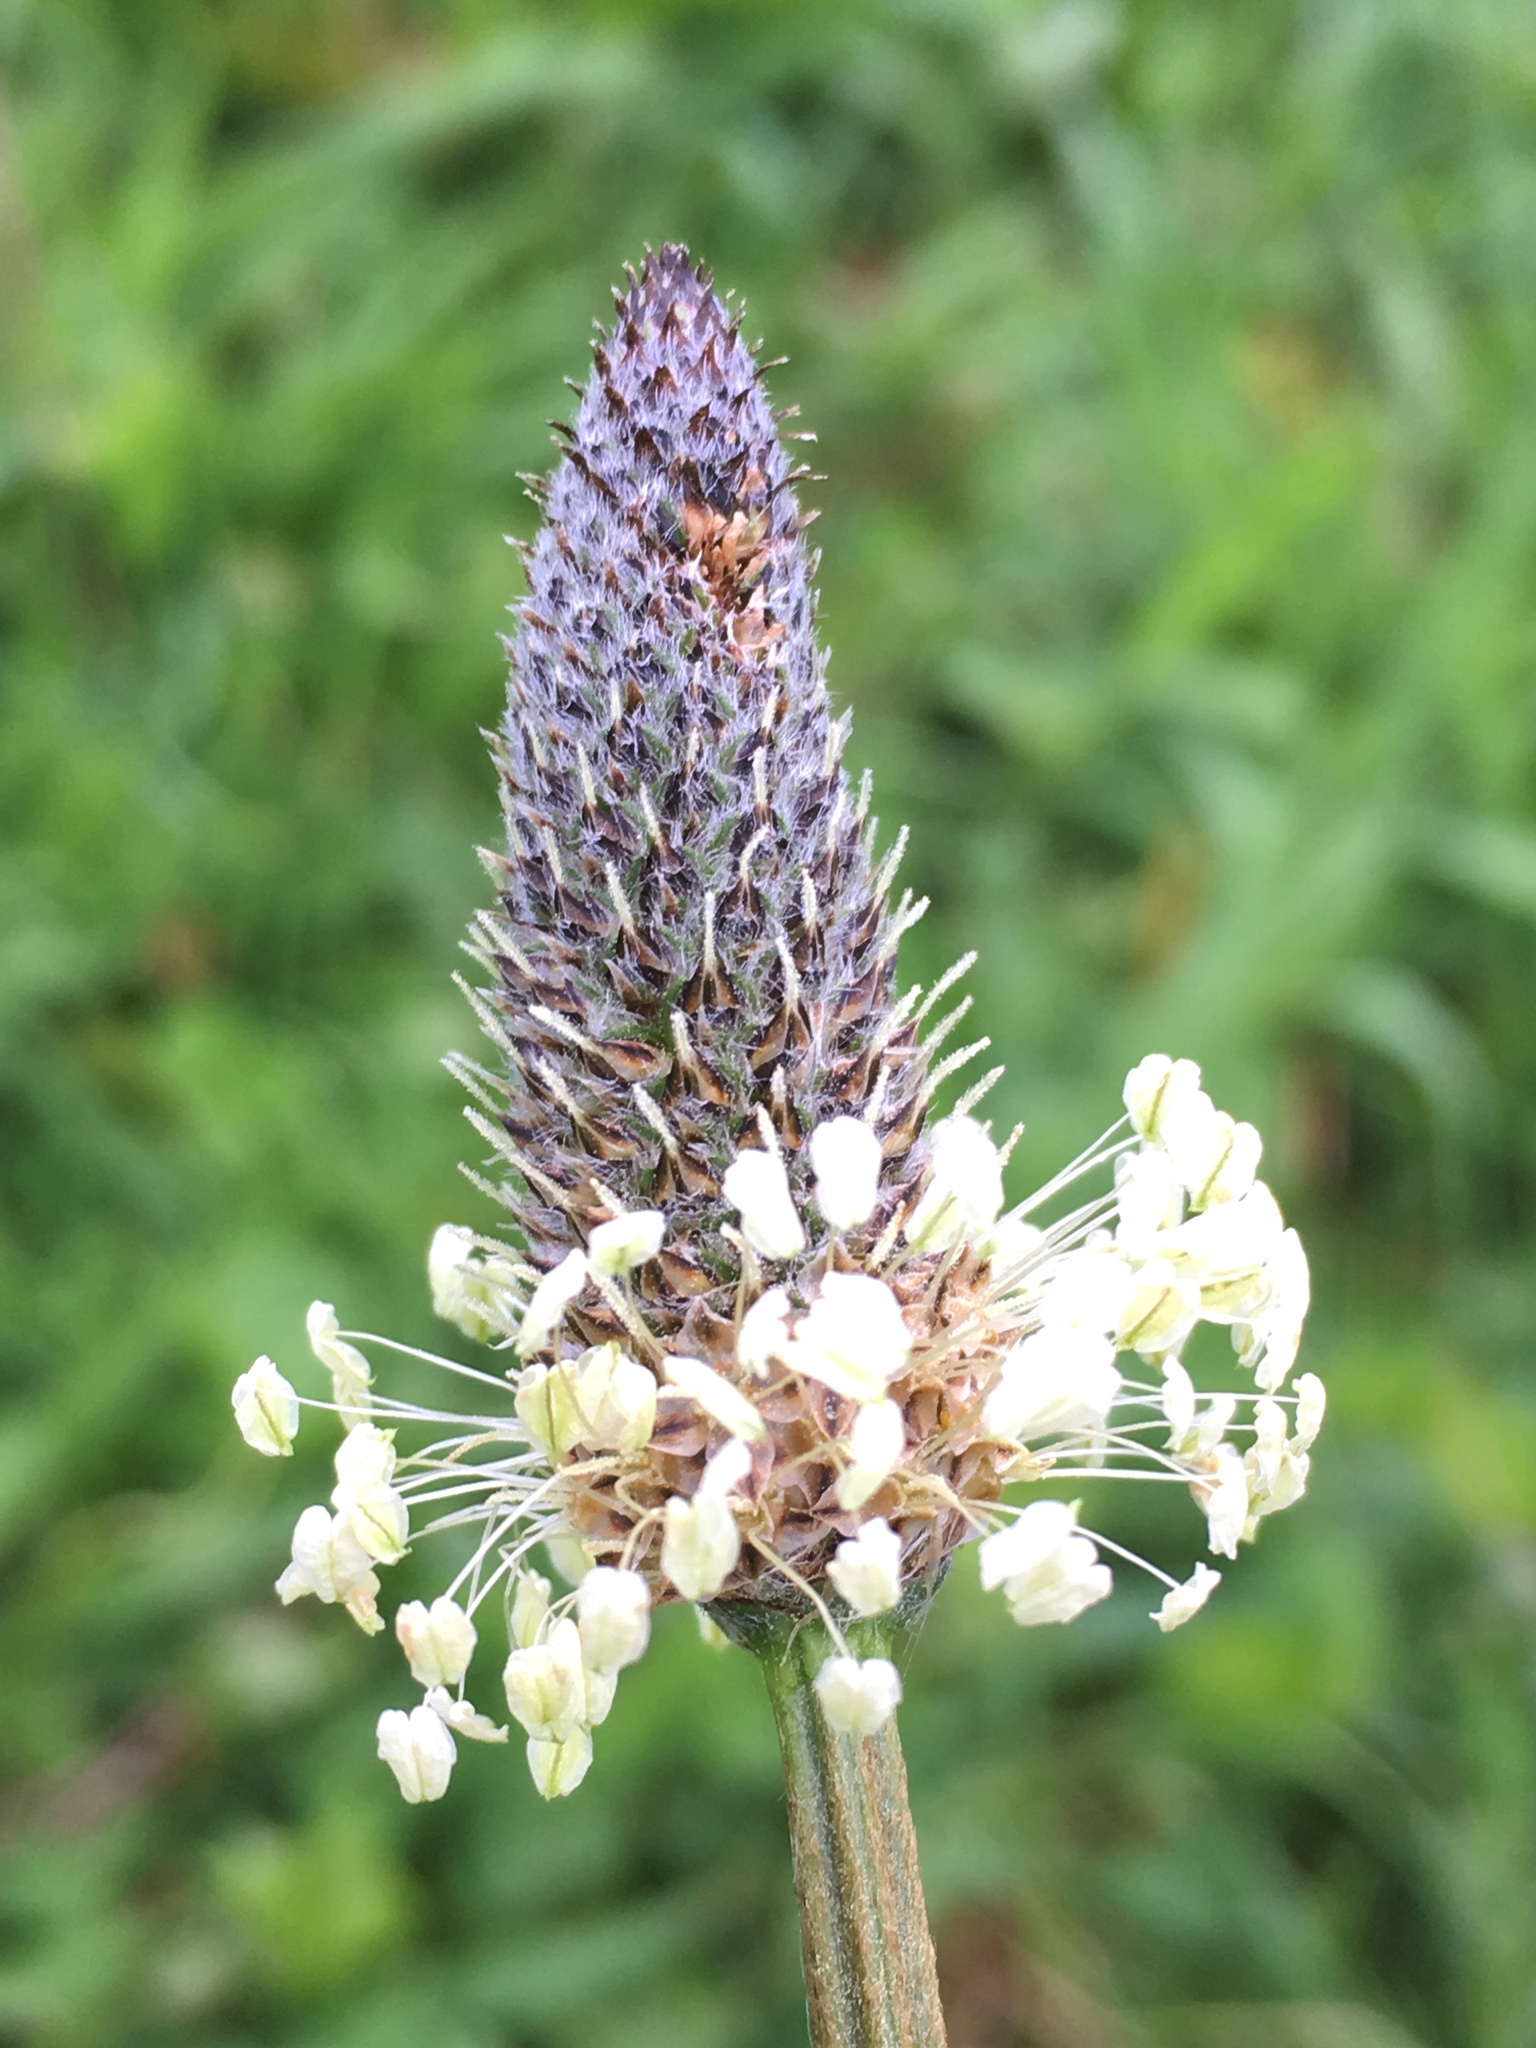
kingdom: Plantae
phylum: Tracheophyta
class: Magnoliopsida
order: Lamiales
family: Plantaginaceae
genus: Plantago
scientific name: Plantago lanceolata
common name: Ribwort plantain
